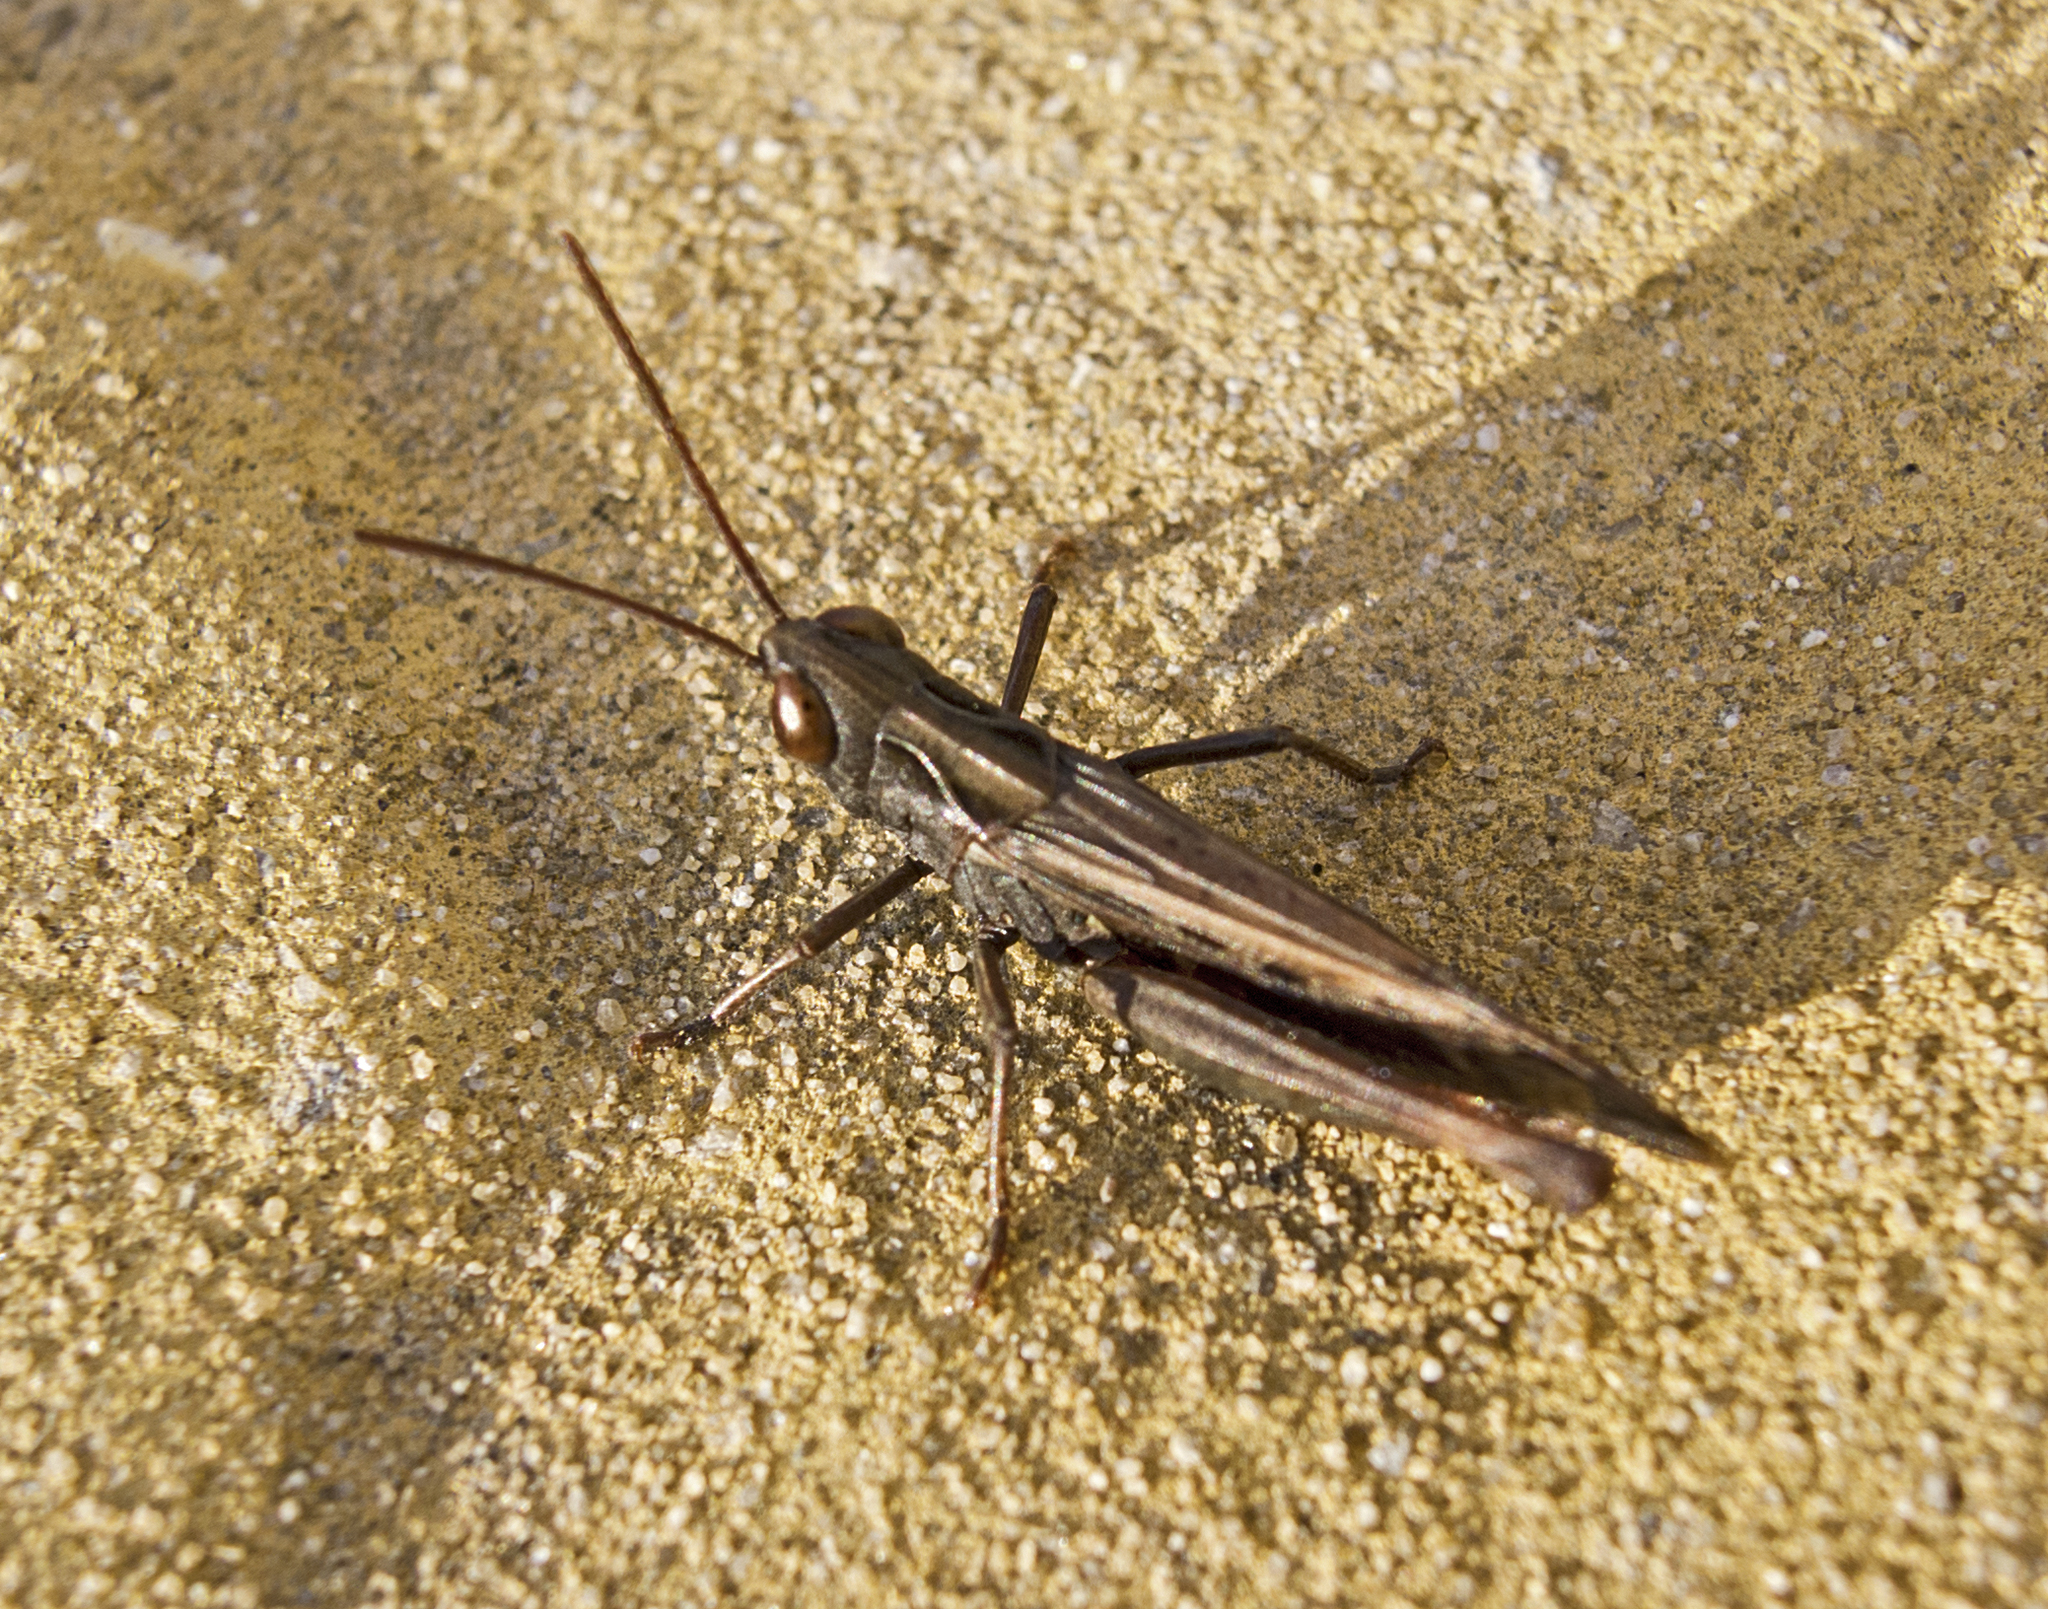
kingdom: Animalia
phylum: Arthropoda
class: Insecta
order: Orthoptera
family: Acrididae
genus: Omocestus
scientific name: Omocestus rufipes
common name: Woodland grasshopper
